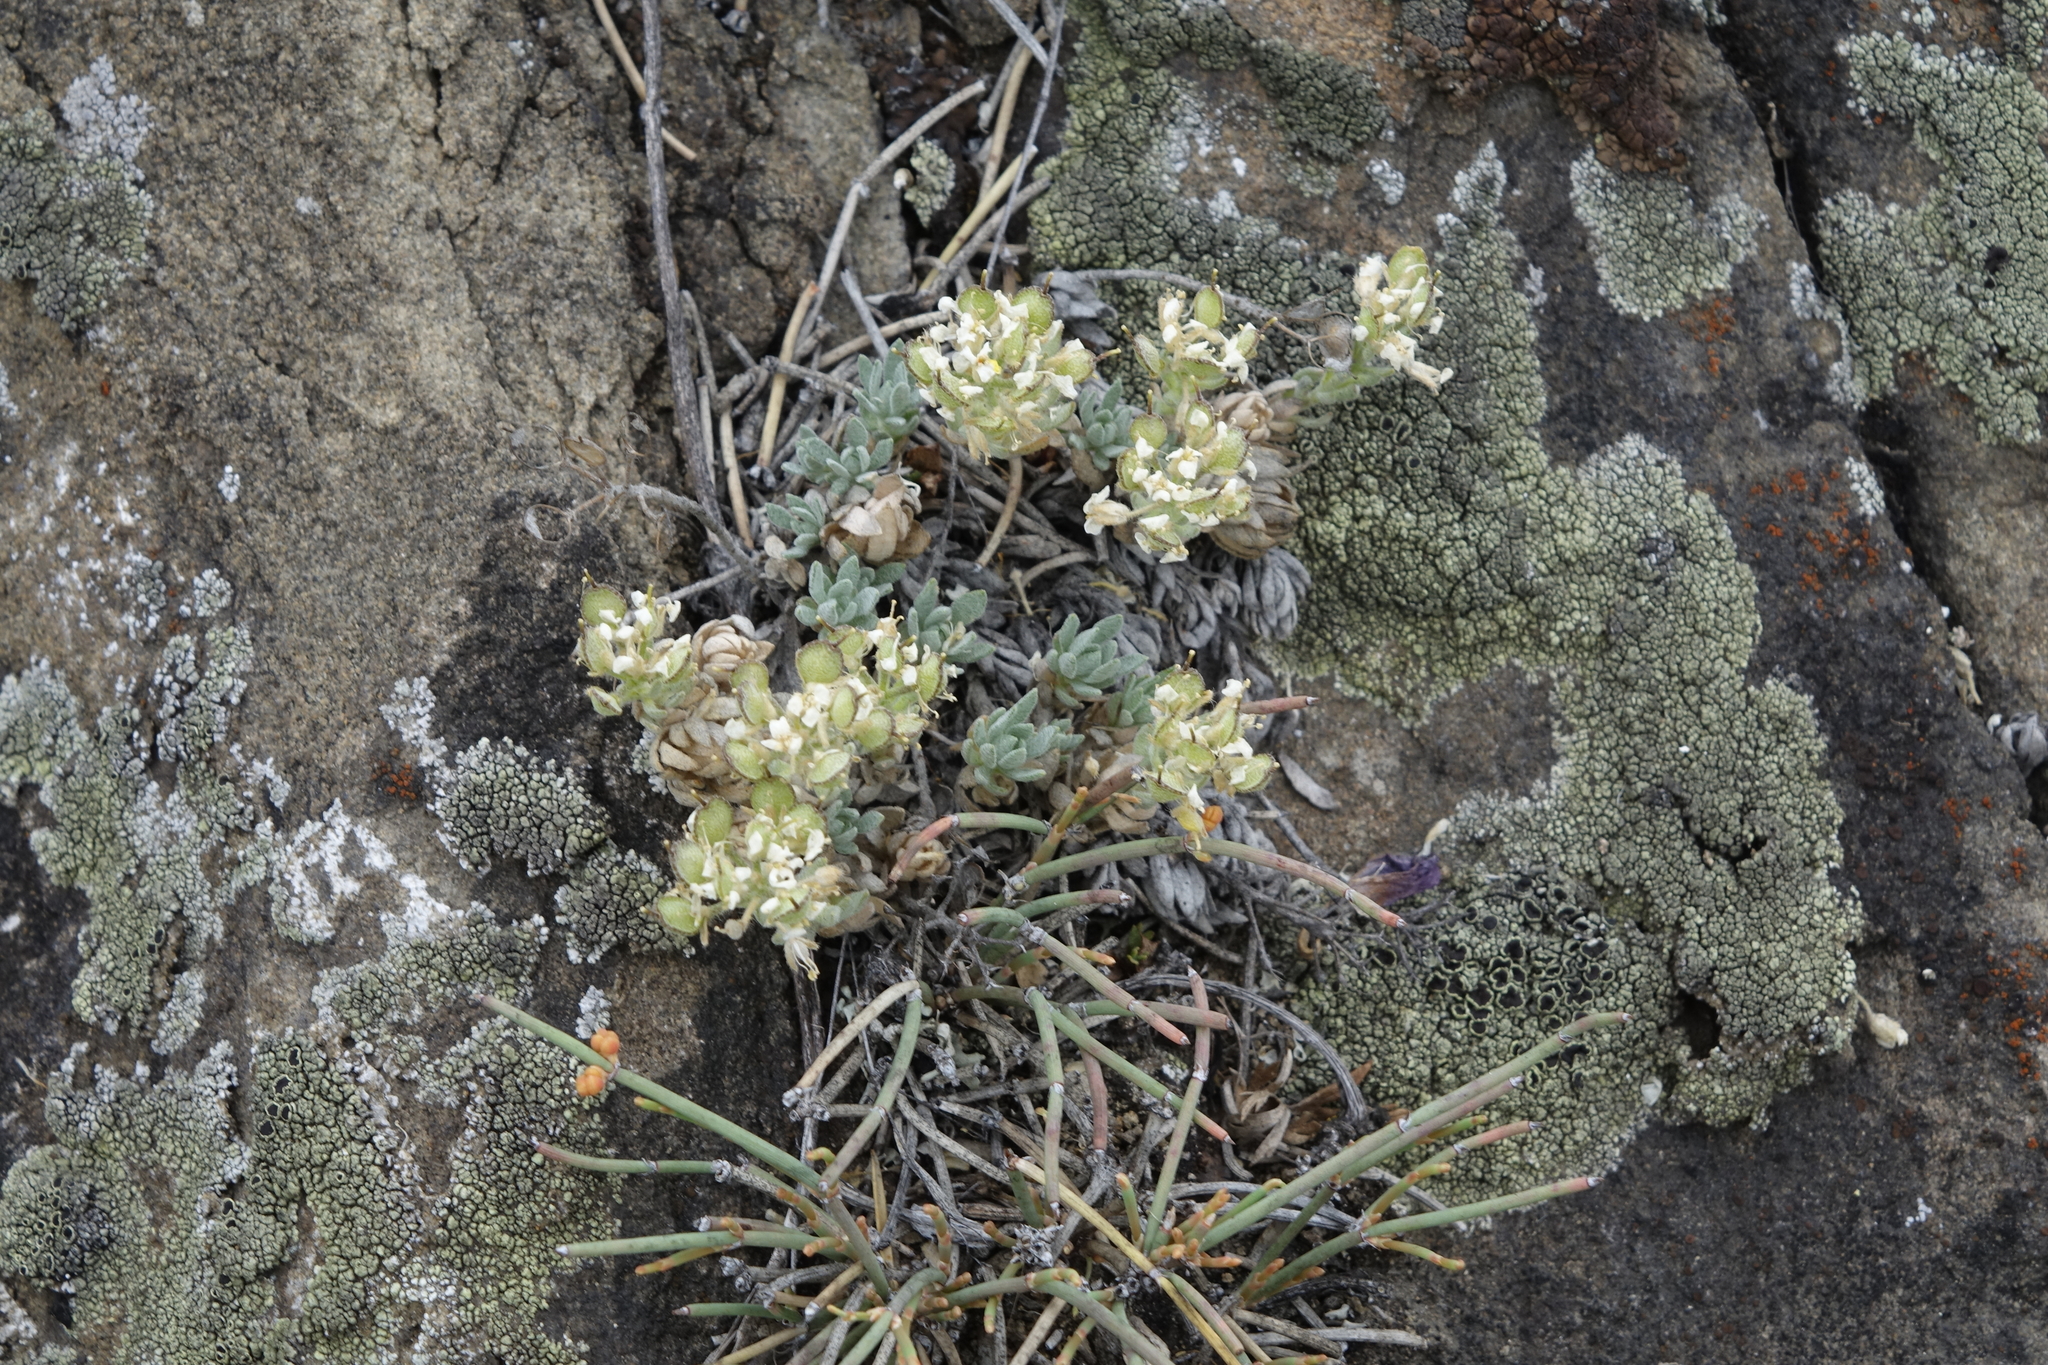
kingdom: Plantae
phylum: Tracheophyta
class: Magnoliopsida
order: Brassicales
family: Brassicaceae
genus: Alyssum
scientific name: Alyssum lenense
